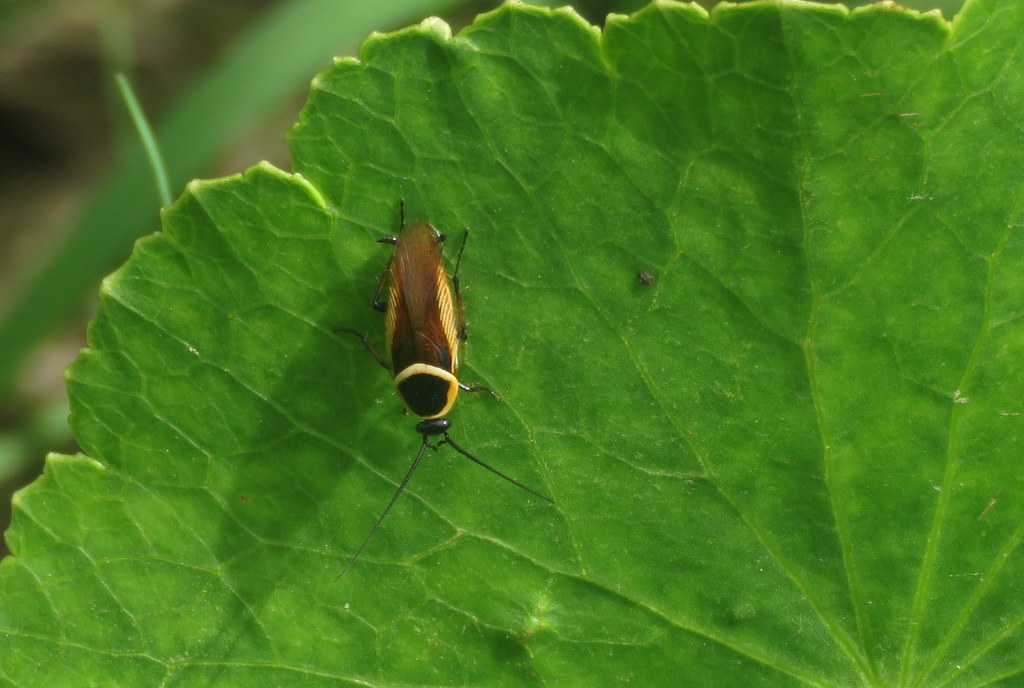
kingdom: Animalia
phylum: Arthropoda
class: Insecta
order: Blattodea
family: Ectobiidae
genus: Pseudomops
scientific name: Pseudomops neglectus
